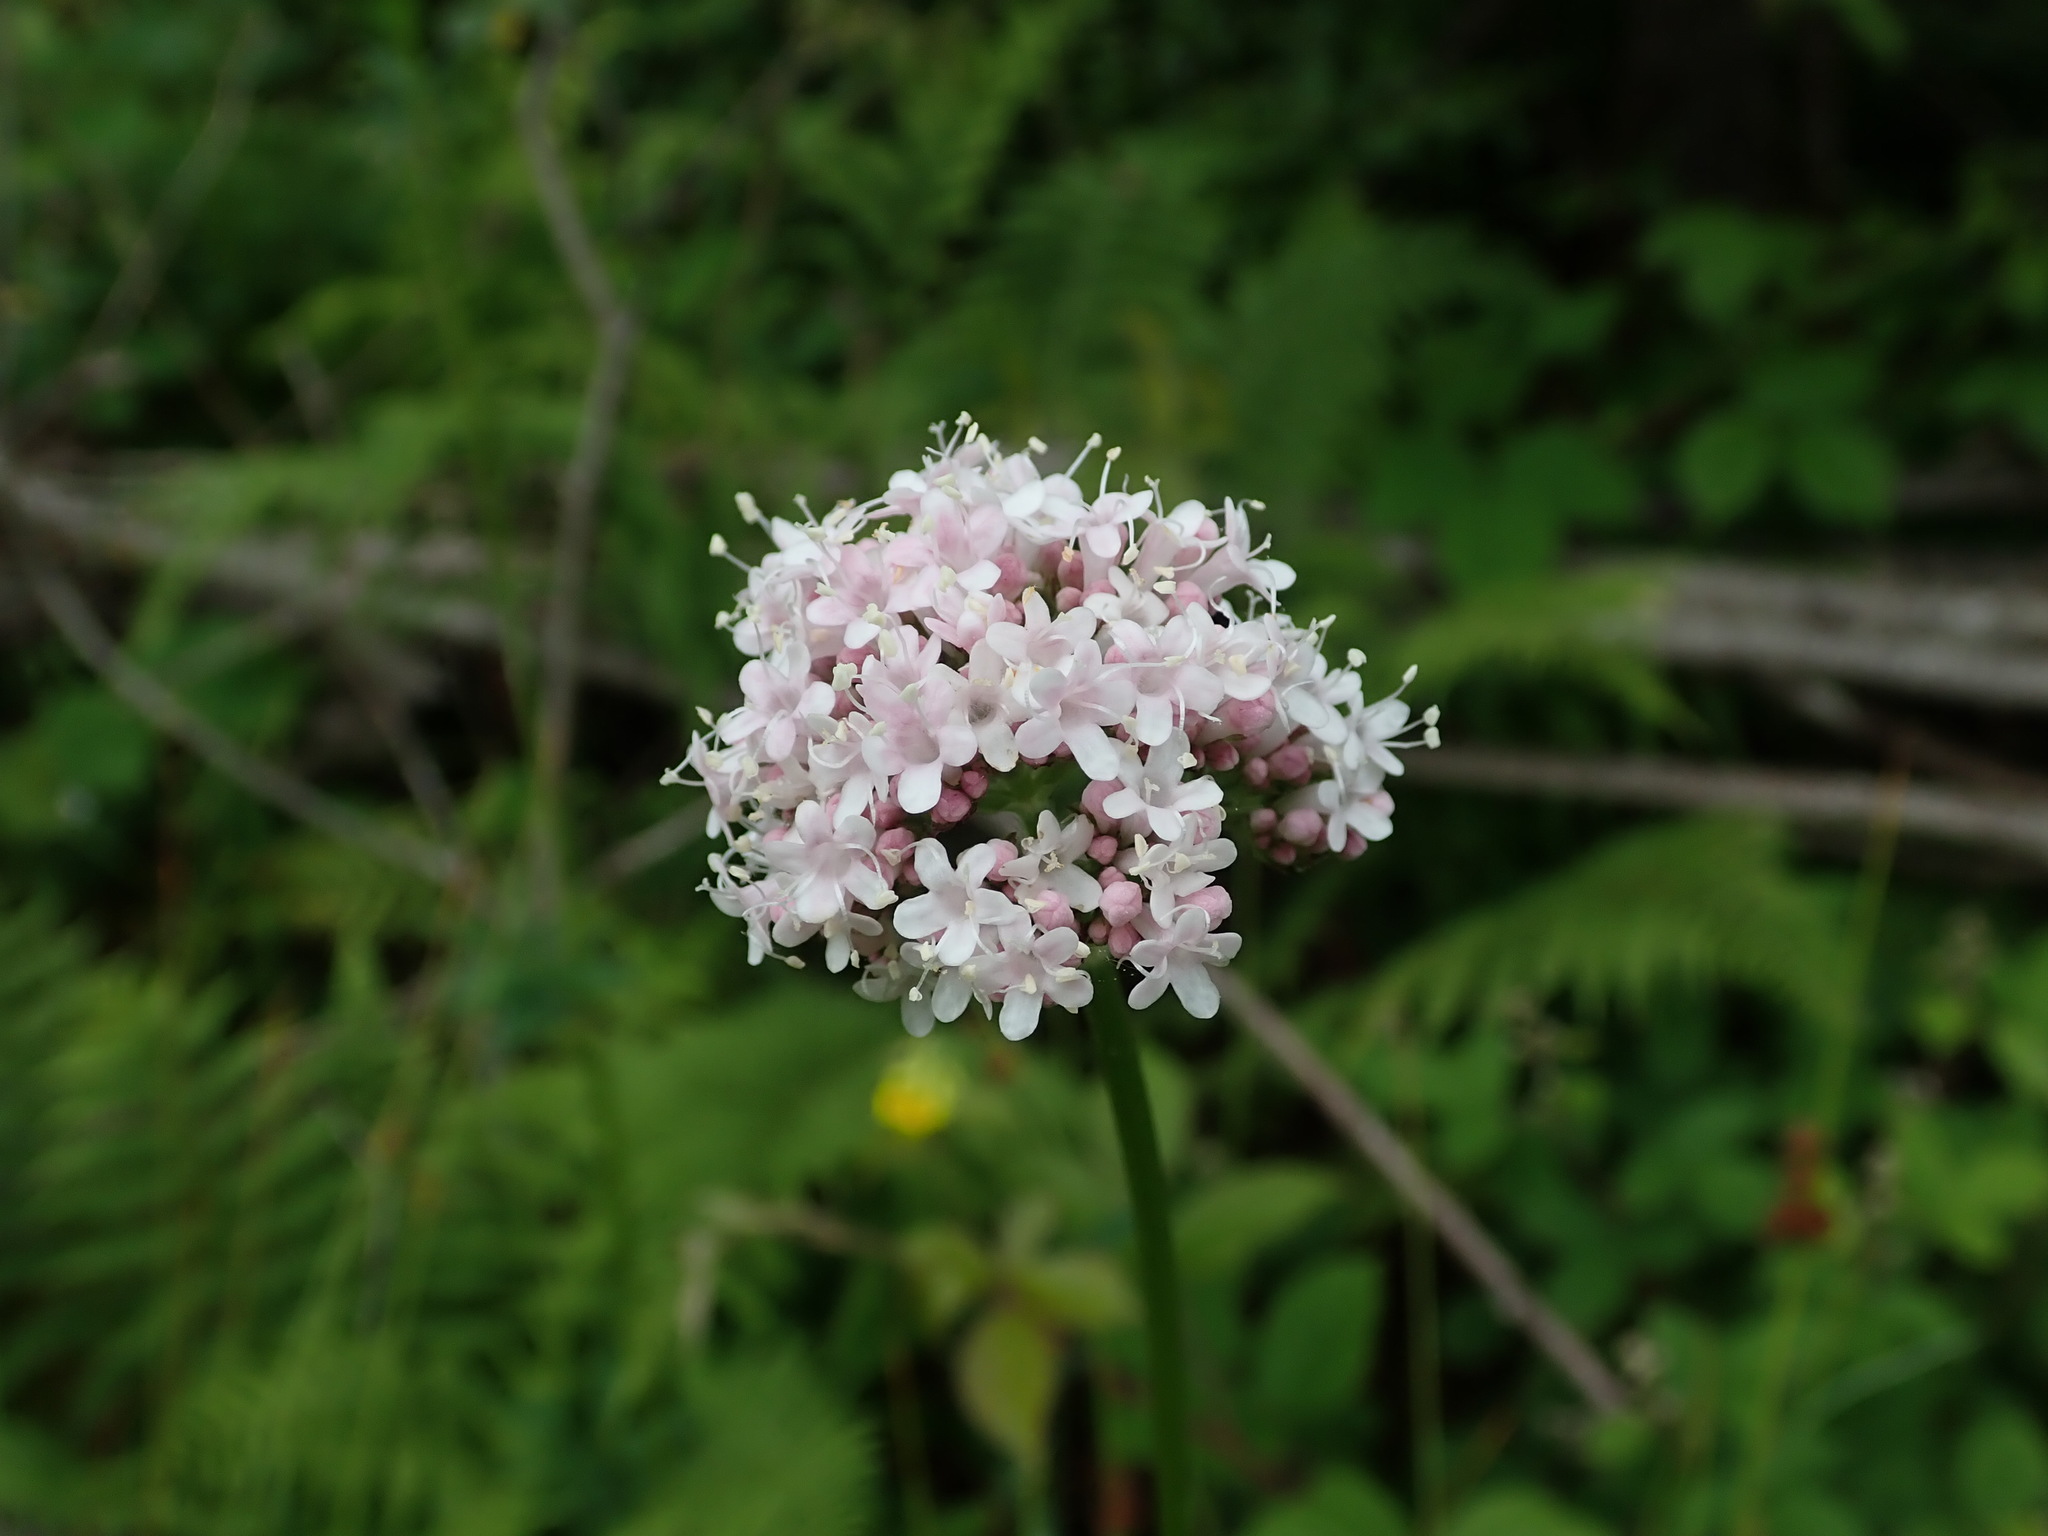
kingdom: Plantae
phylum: Tracheophyta
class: Magnoliopsida
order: Dipsacales
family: Caprifoliaceae
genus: Valeriana
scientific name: Valeriana officinalis
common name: Common valerian
